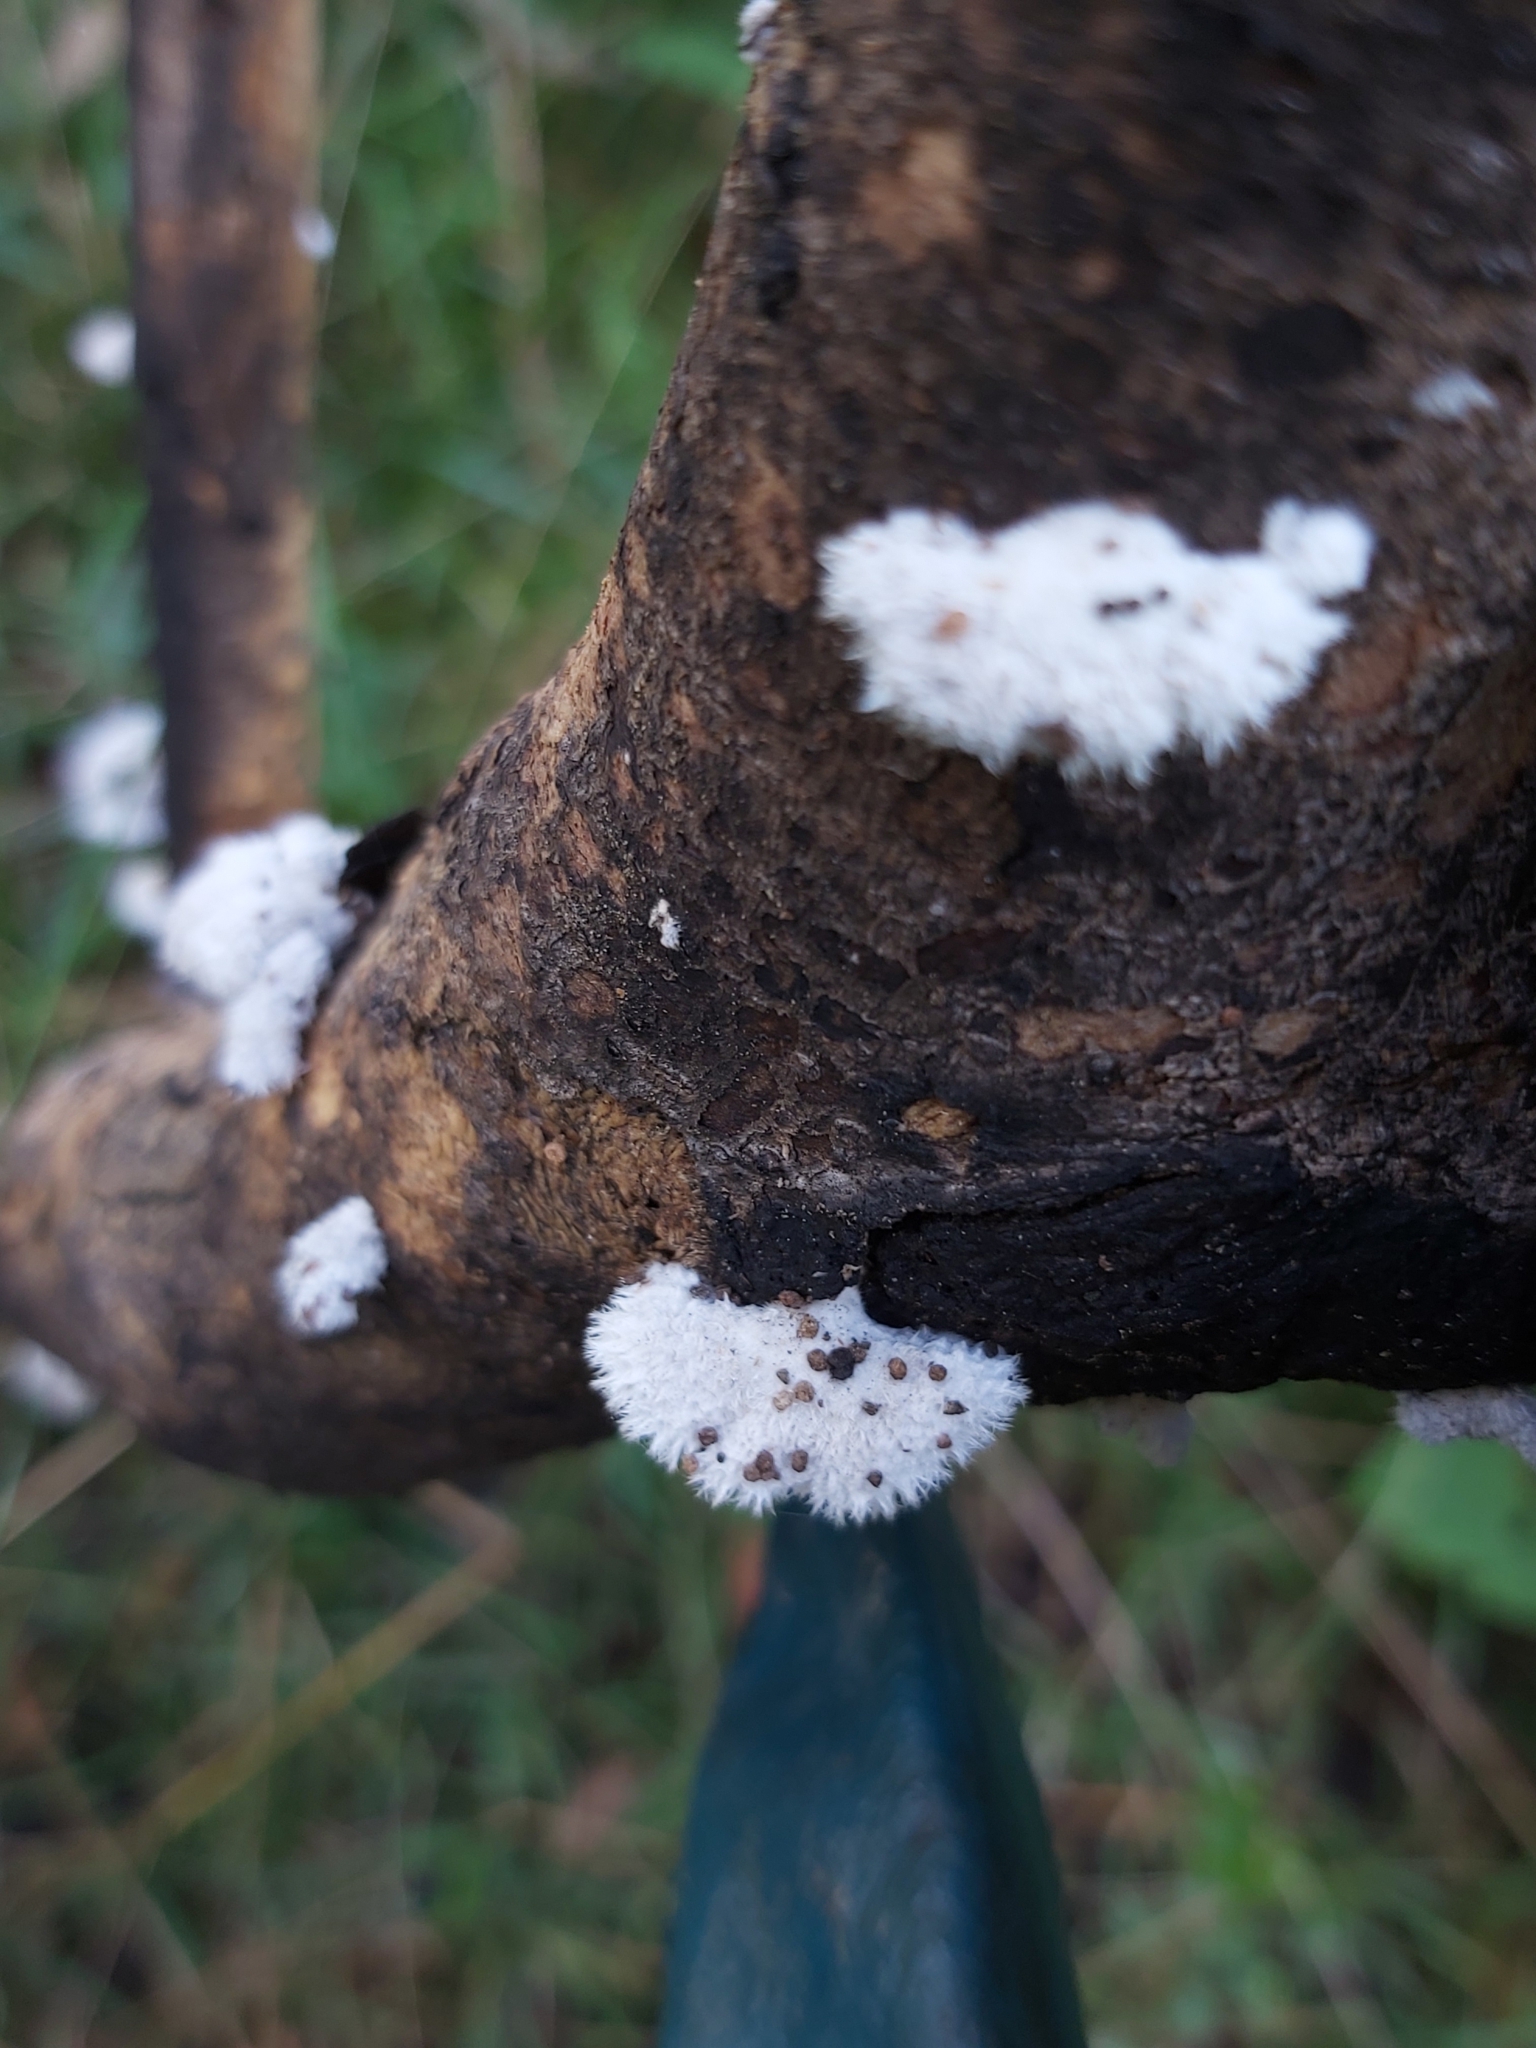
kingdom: Fungi
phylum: Basidiomycota
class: Agaricomycetes
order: Agaricales
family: Schizophyllaceae
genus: Schizophyllum
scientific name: Schizophyllum commune
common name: Common porecrust
